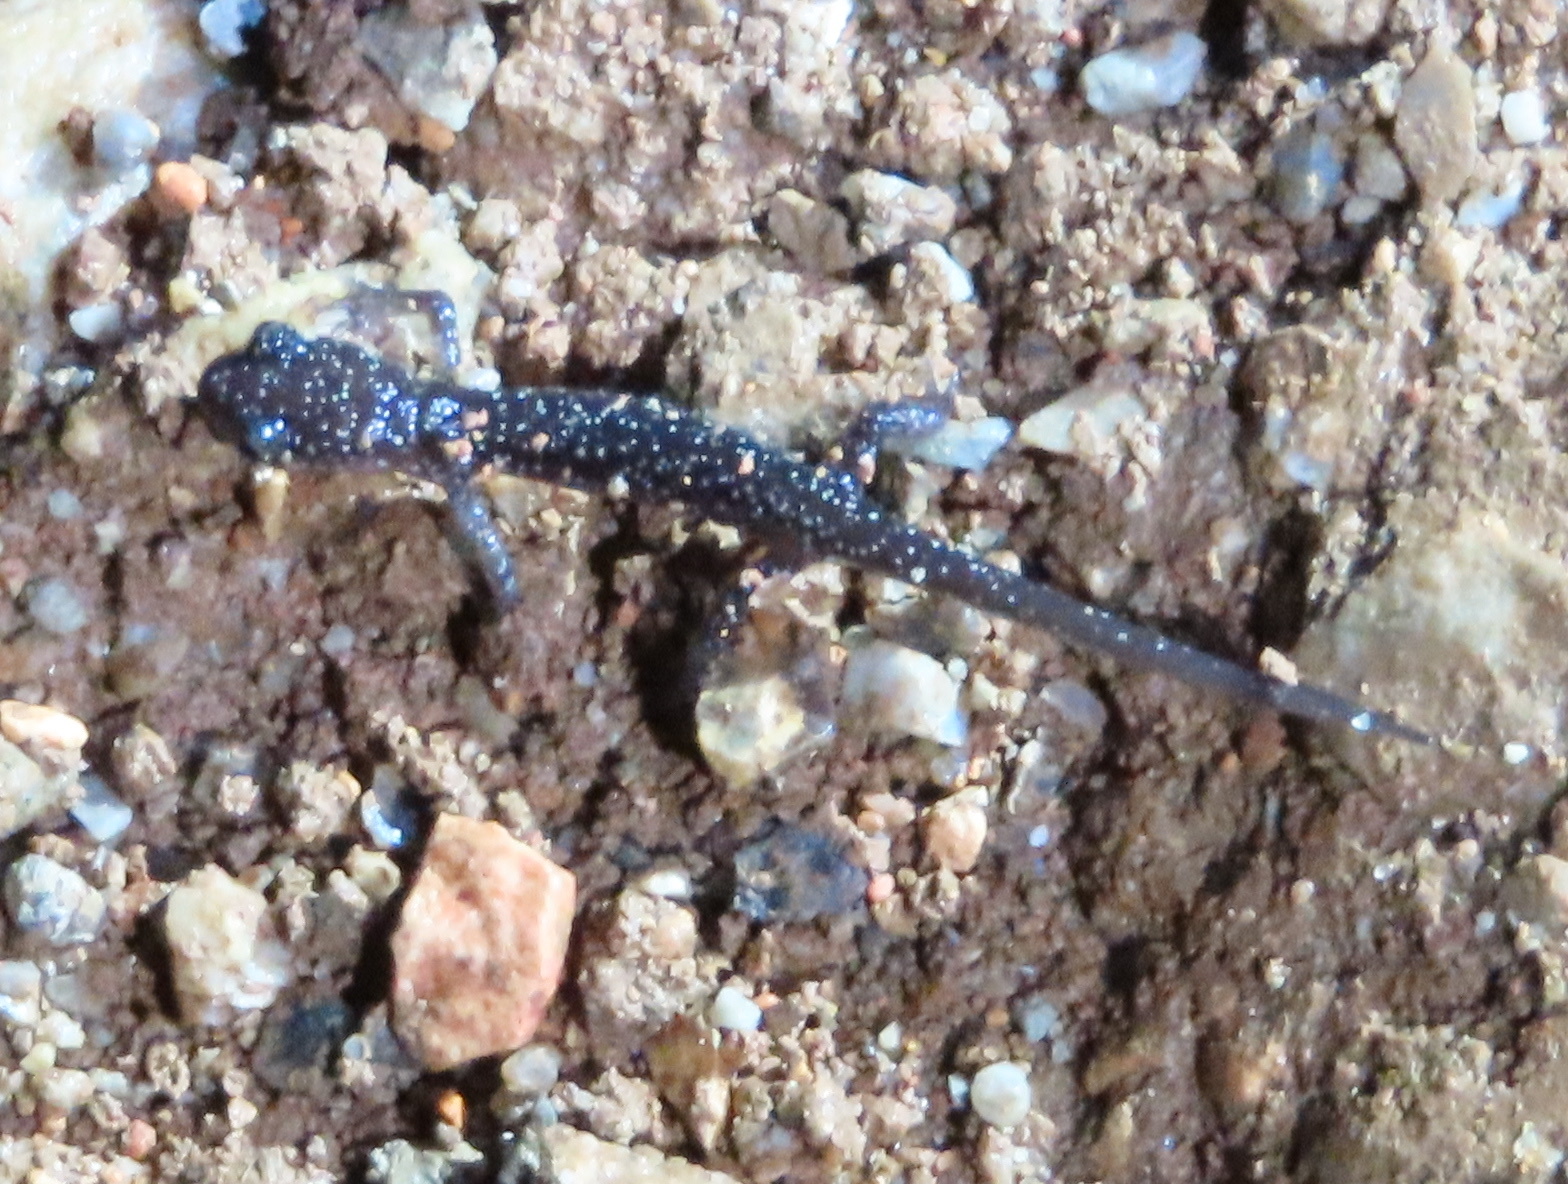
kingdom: Animalia
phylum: Chordata
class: Amphibia
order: Caudata
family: Plethodontidae
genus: Plethodon
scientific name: Plethodon albagula
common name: Western slimy salamander
